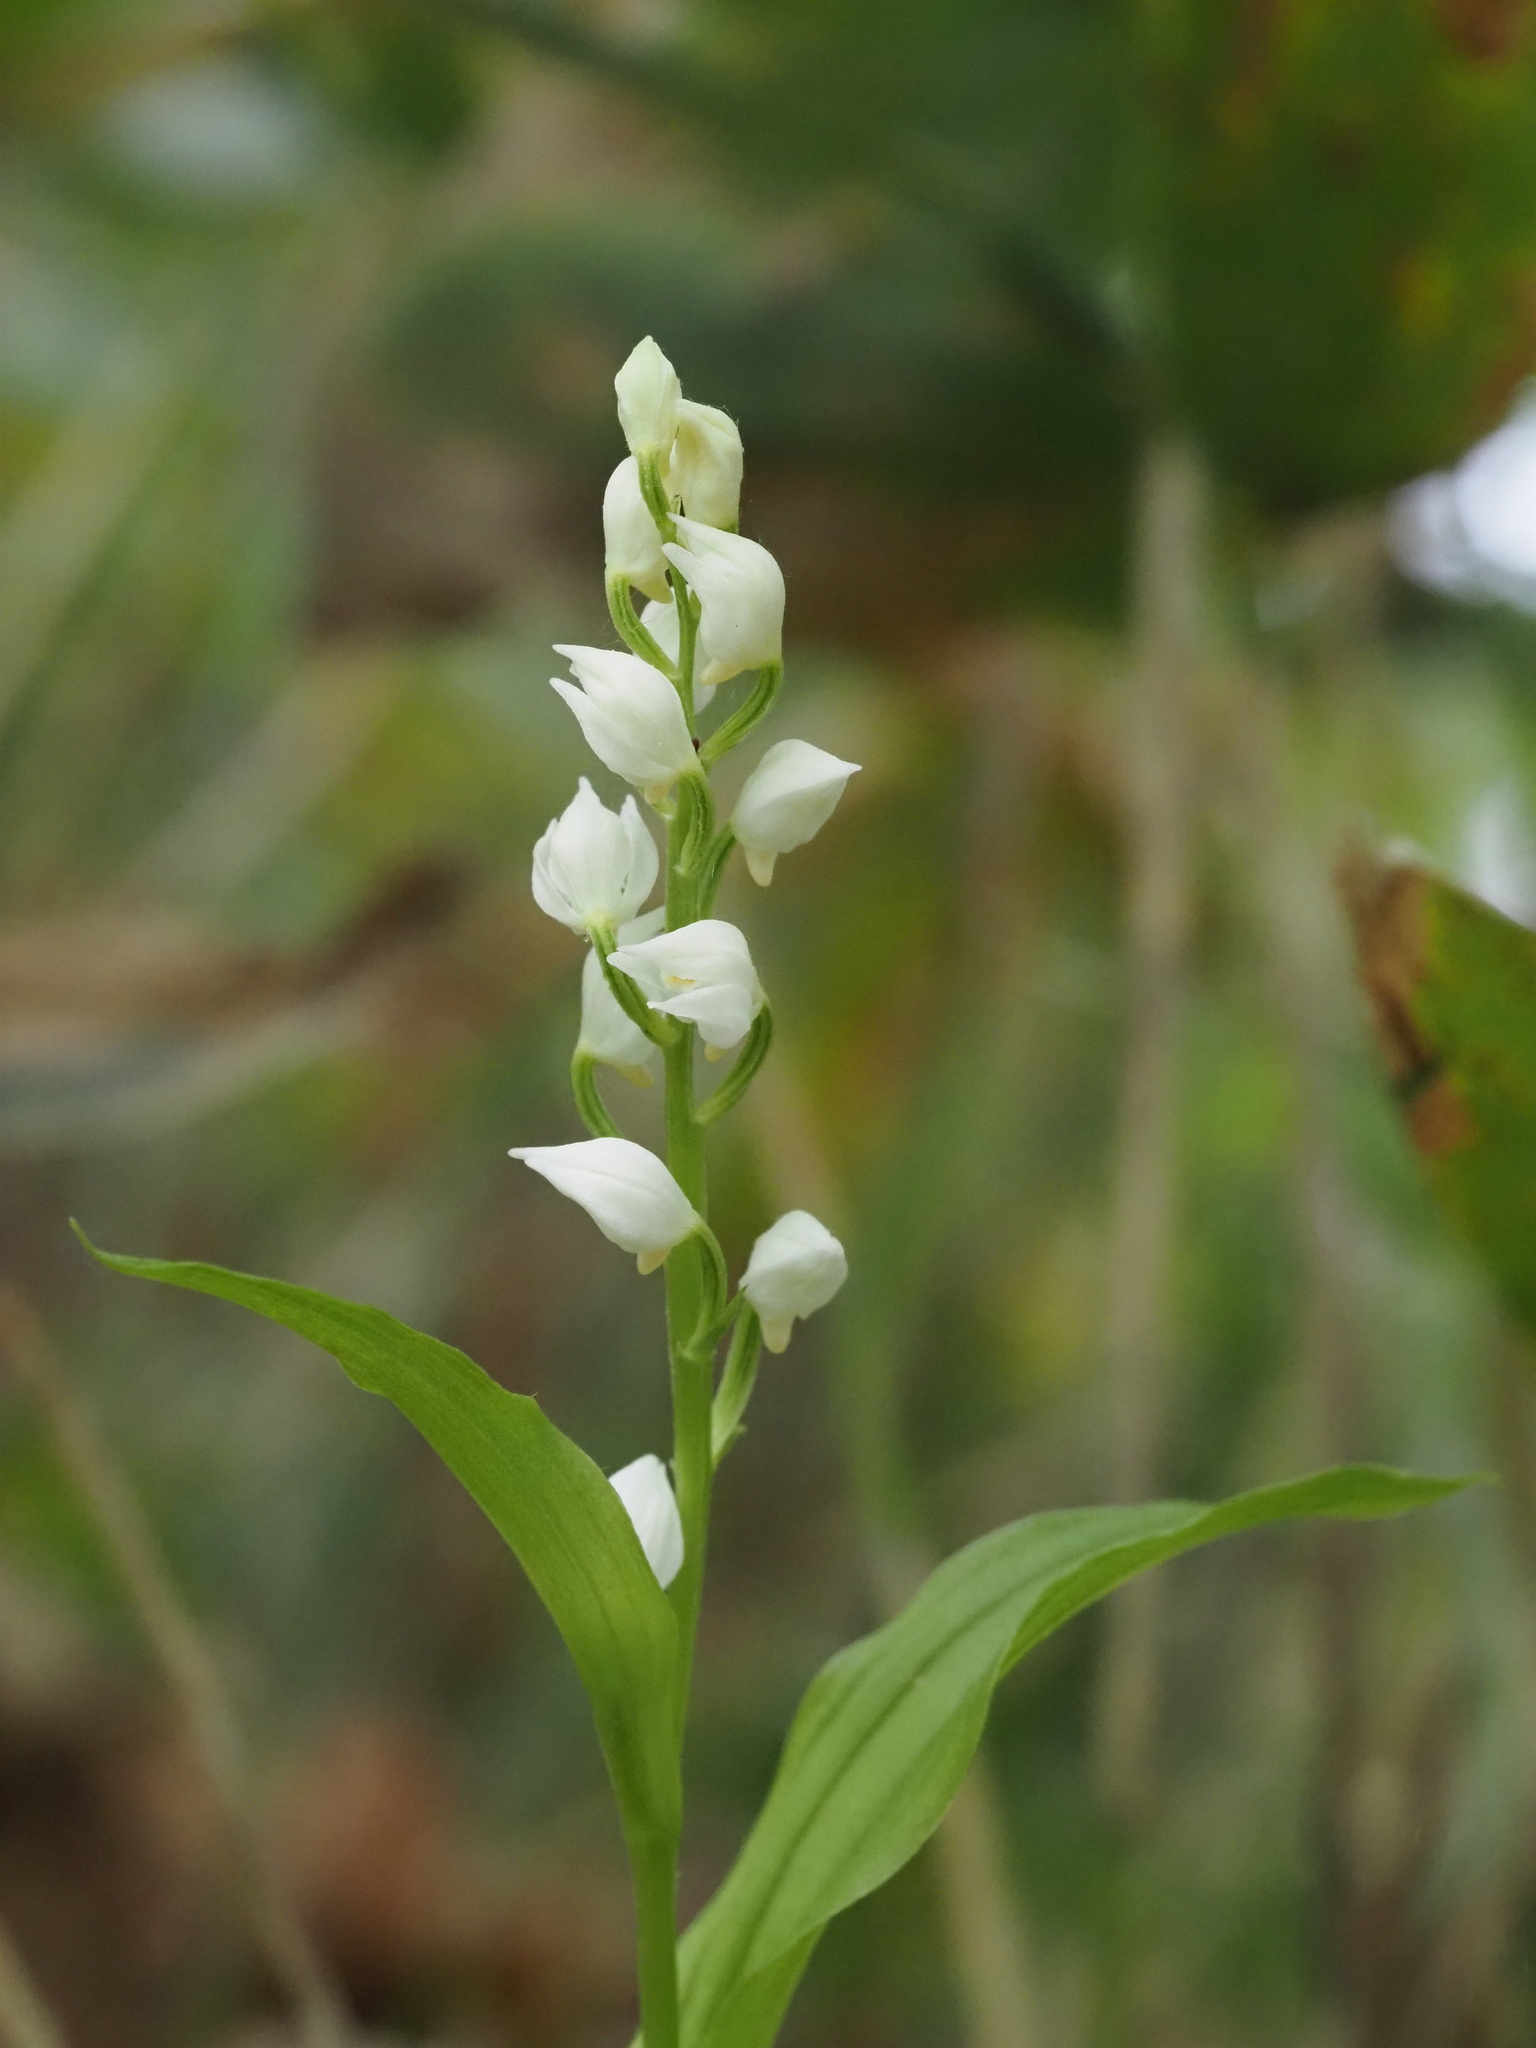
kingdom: Plantae
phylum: Tracheophyta
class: Liliopsida
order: Asparagales
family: Orchidaceae
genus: Cephalanthera
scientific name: Cephalanthera erecta
